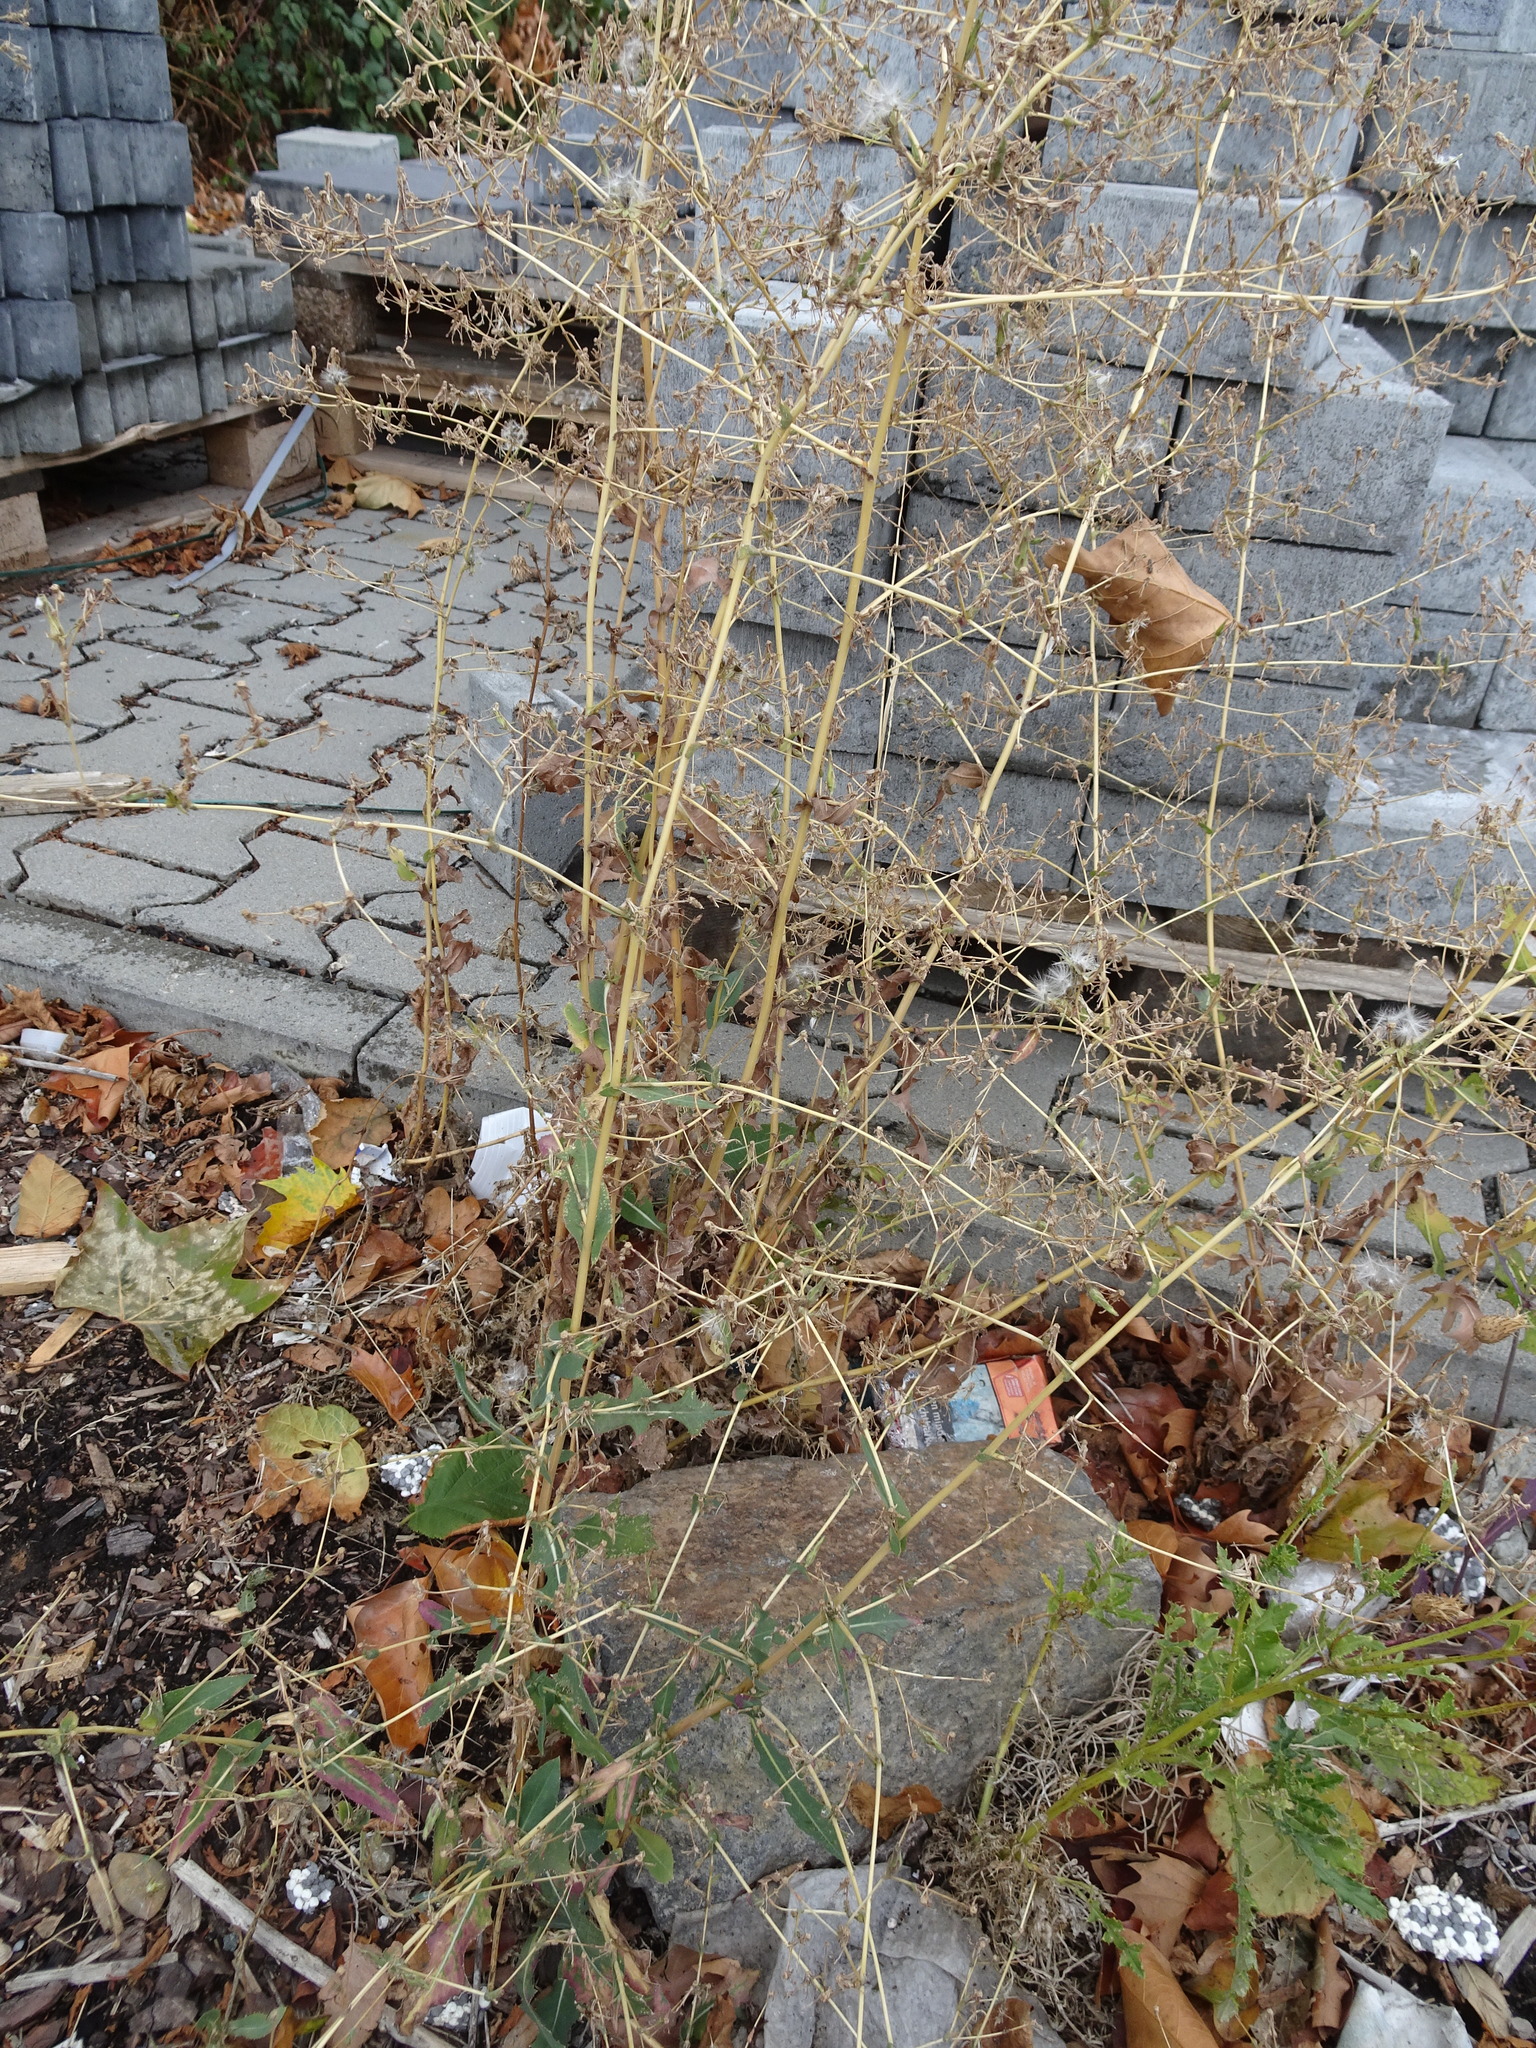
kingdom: Plantae
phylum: Tracheophyta
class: Magnoliopsida
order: Asterales
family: Asteraceae
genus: Lactuca
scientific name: Lactuca serriola
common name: Prickly lettuce
